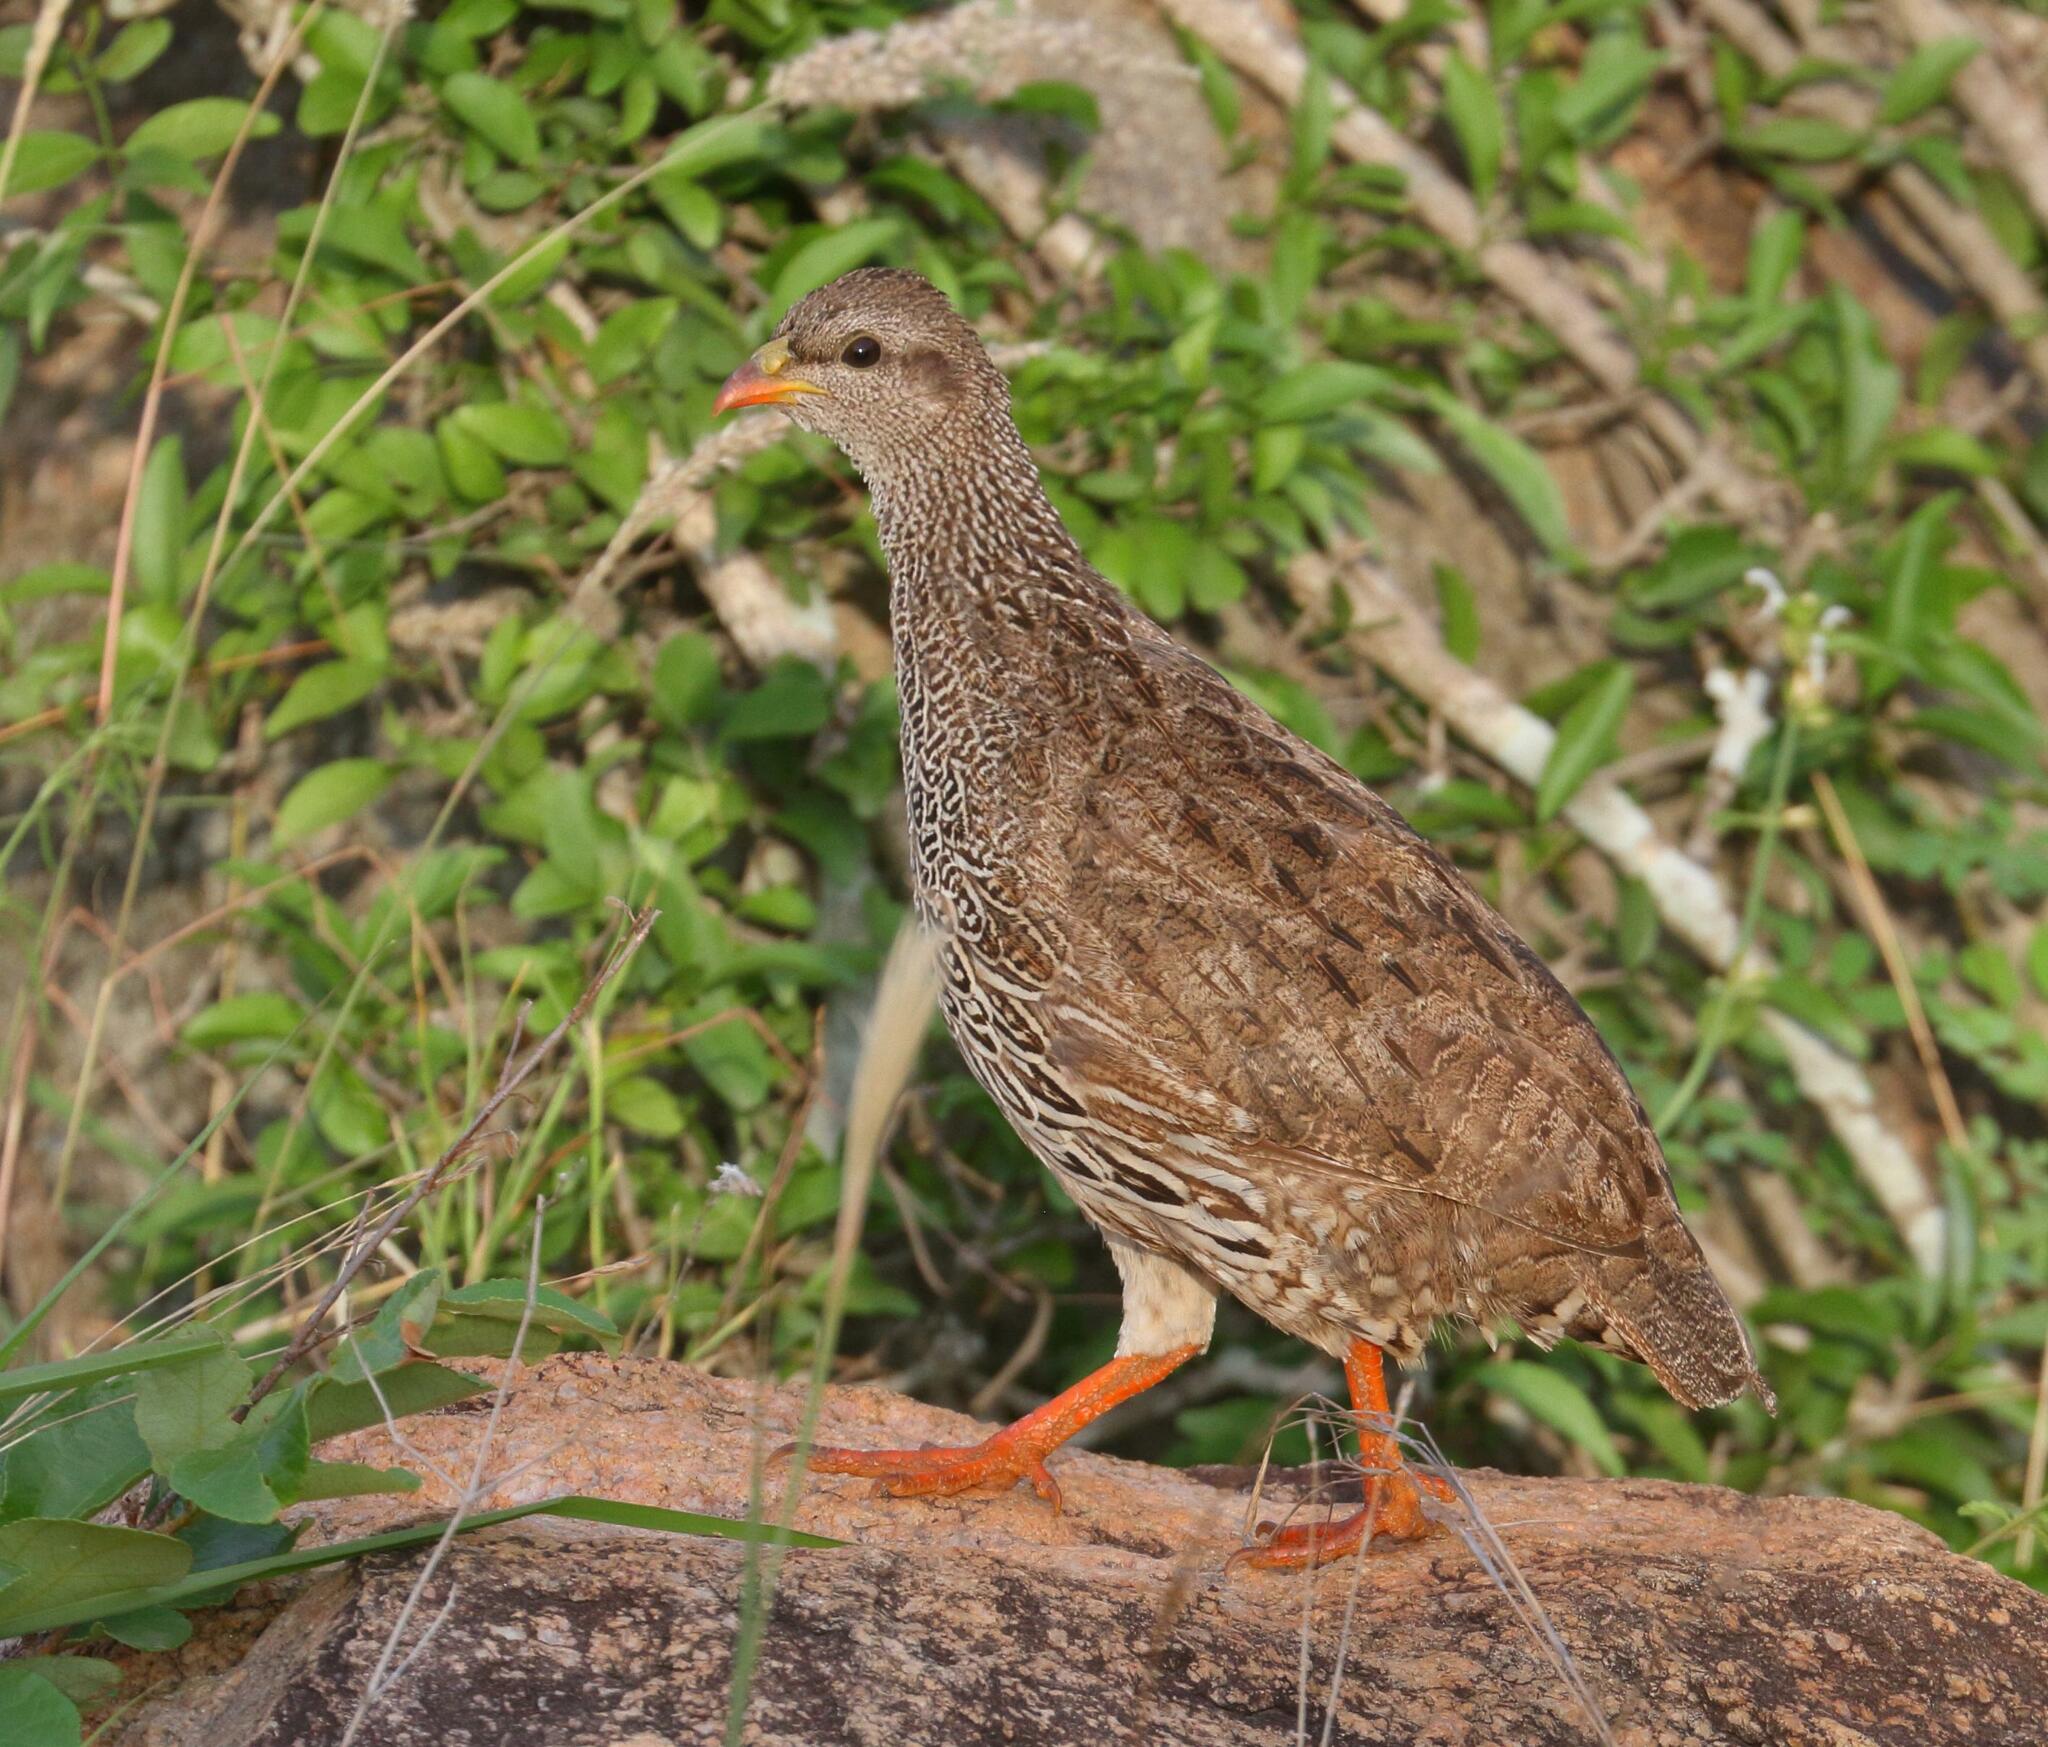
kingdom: Animalia
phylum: Chordata
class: Aves
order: Galliformes
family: Phasianidae
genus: Pternistis
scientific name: Pternistis natalensis
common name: Natal spurfowl
